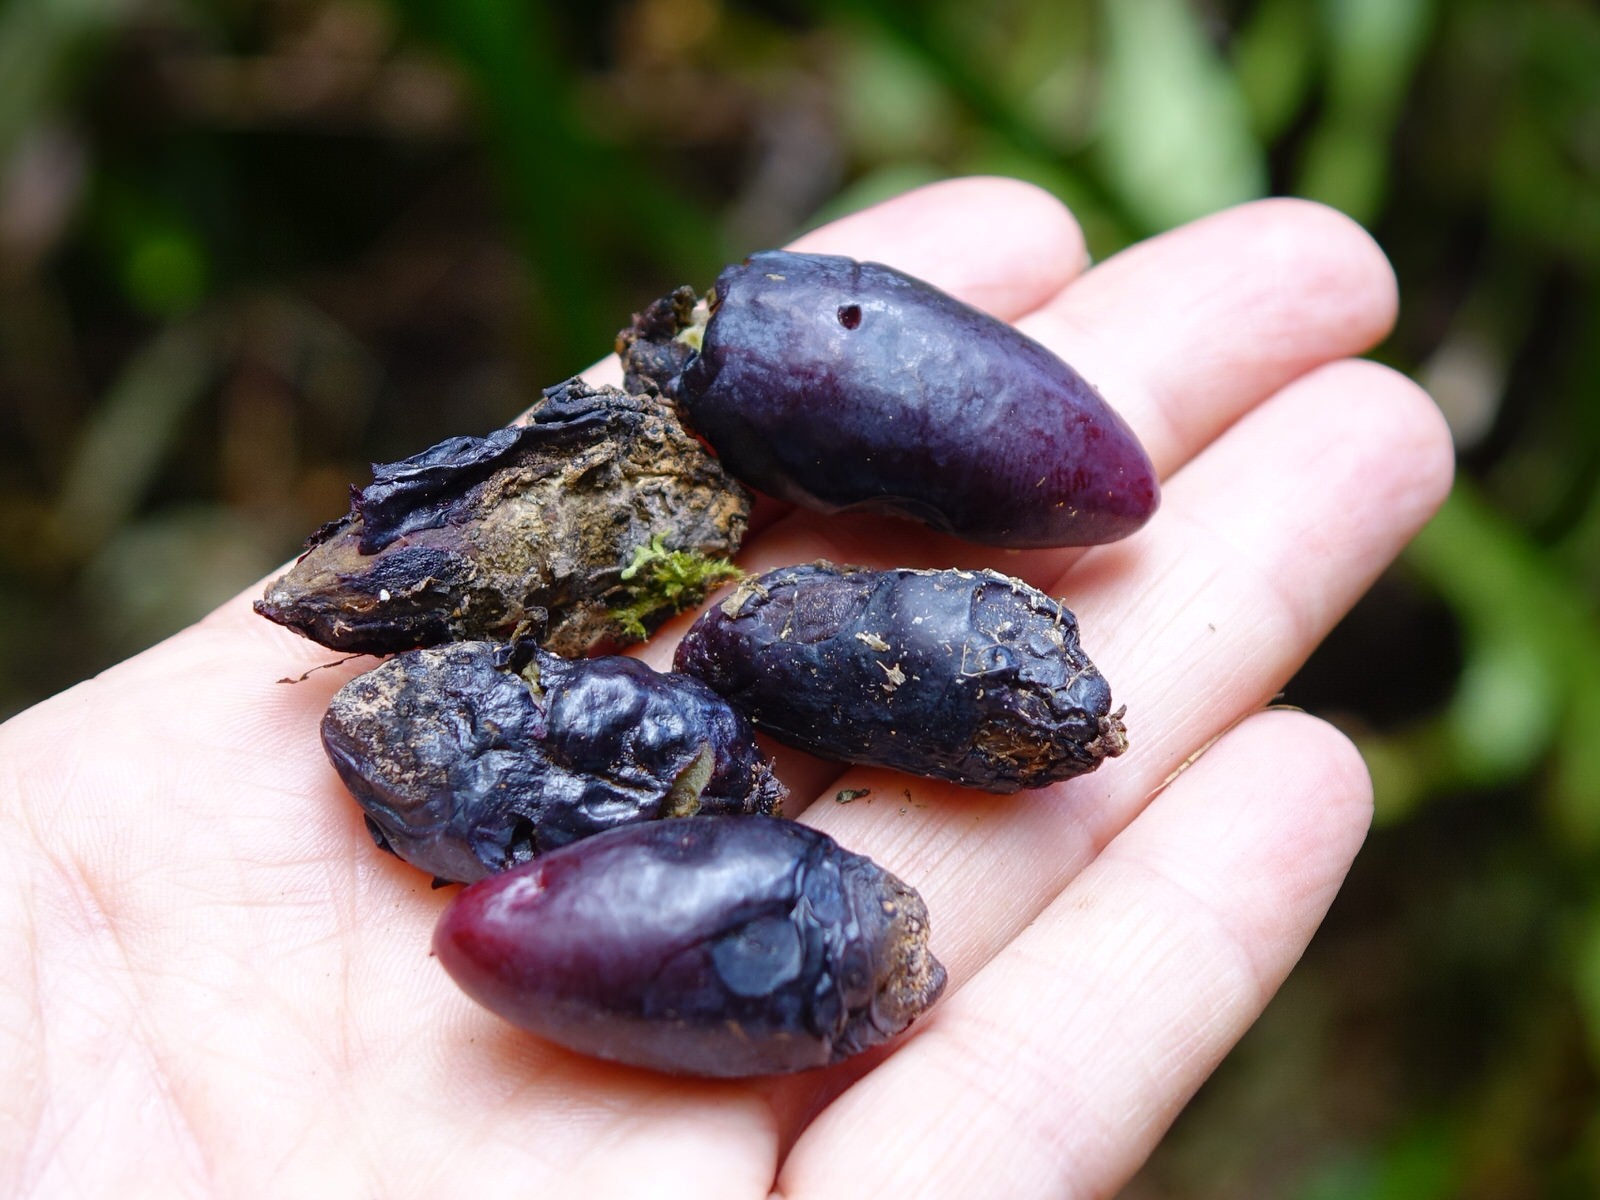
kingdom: Plantae
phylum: Tracheophyta
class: Magnoliopsida
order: Laurales
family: Lauraceae
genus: Beilschmiedia
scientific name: Beilschmiedia tawa
